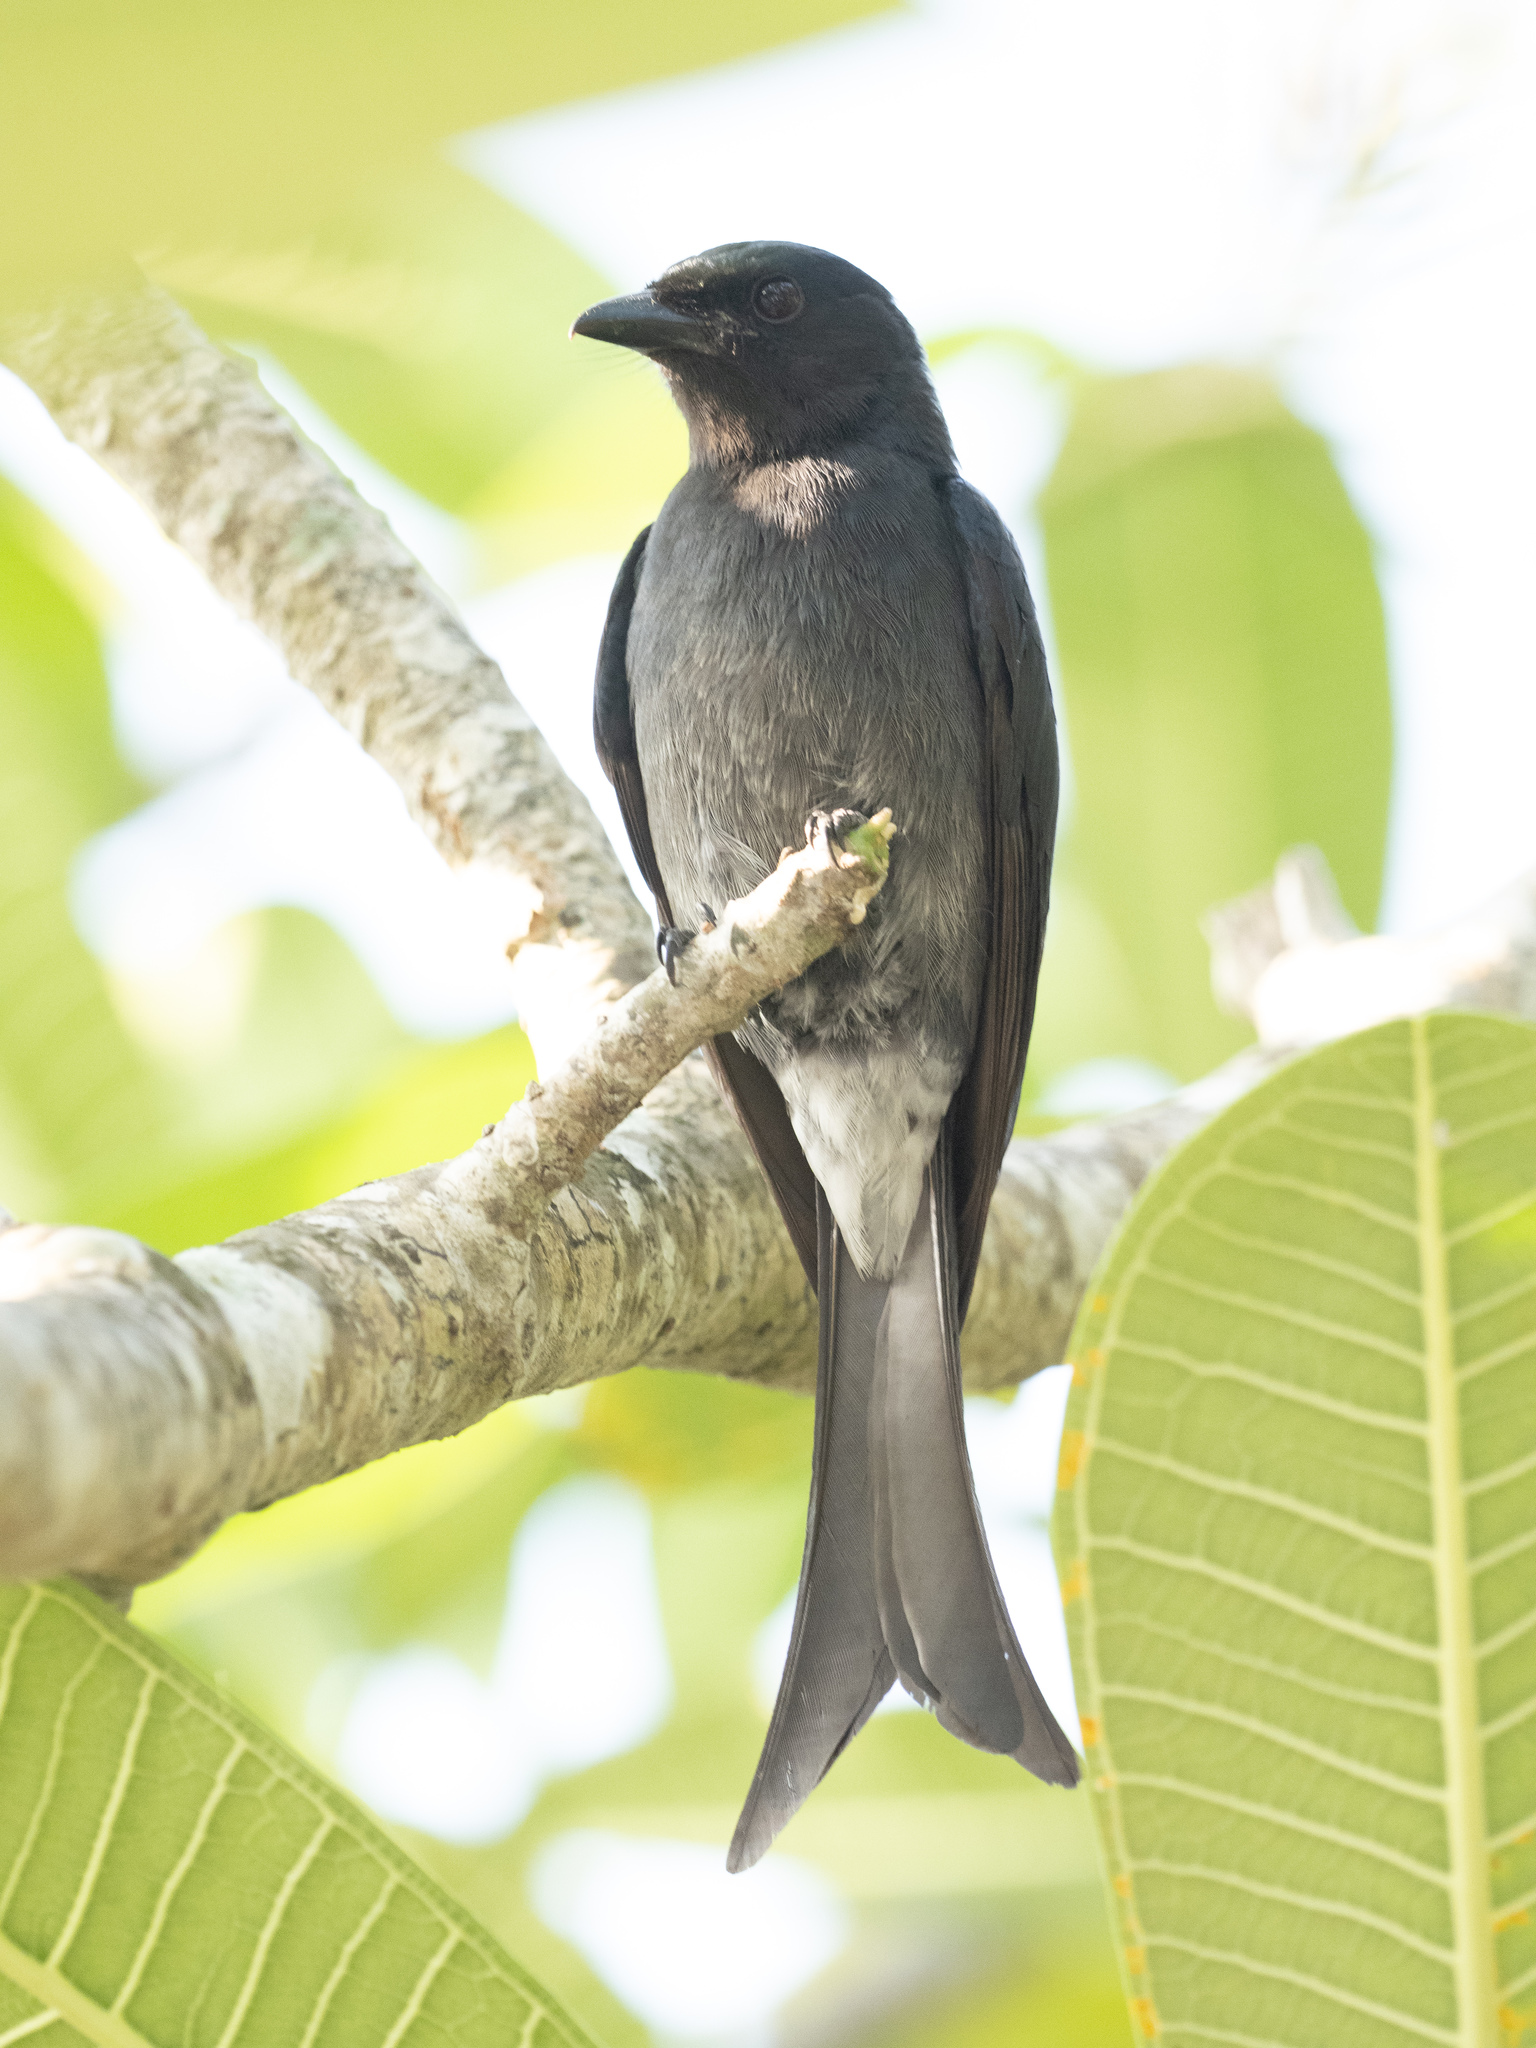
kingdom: Animalia
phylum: Chordata
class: Aves
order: Passeriformes
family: Dicruridae
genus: Dicrurus
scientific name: Dicrurus caerulescens
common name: White-bellied drongo
